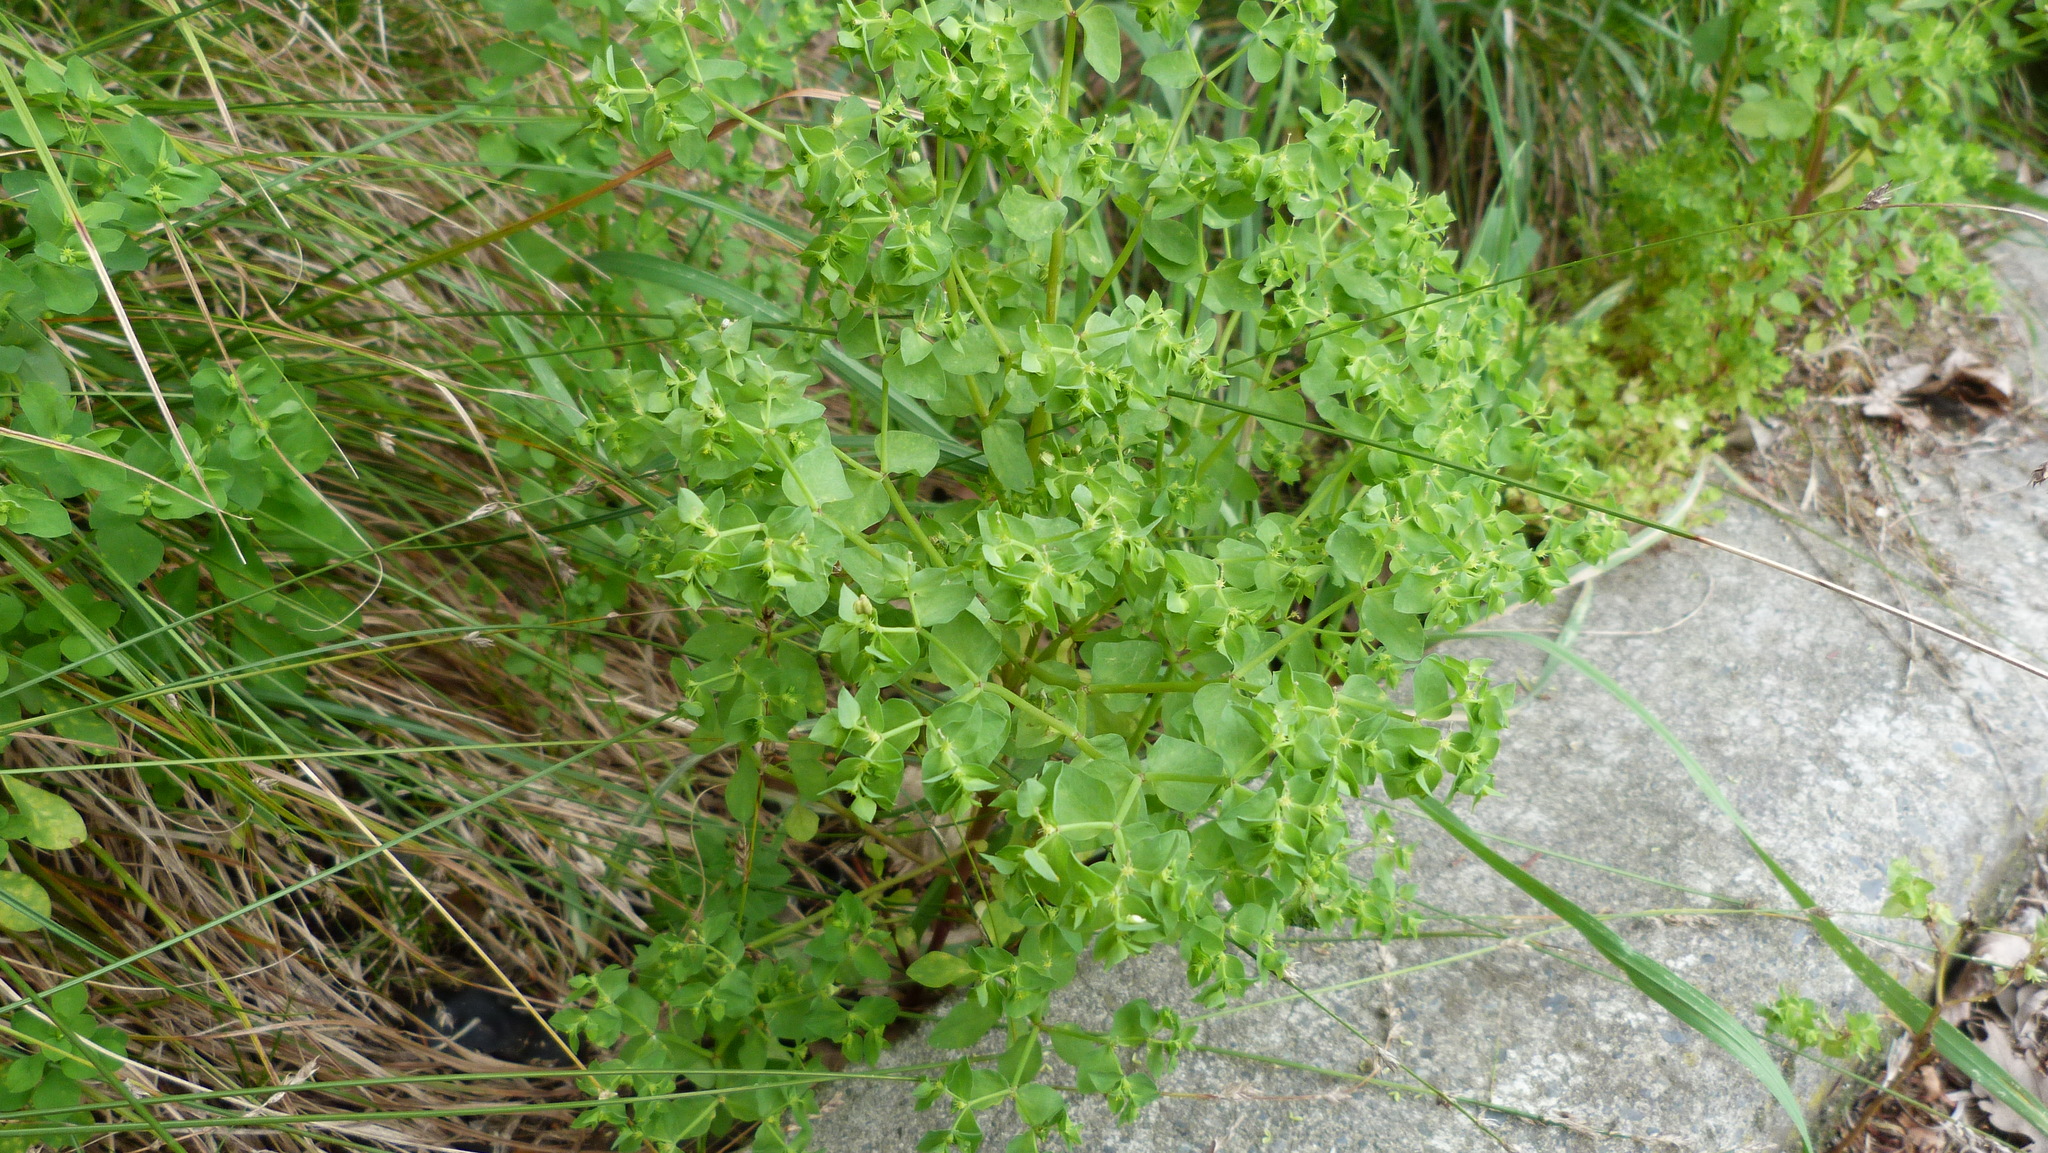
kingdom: Plantae
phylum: Tracheophyta
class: Magnoliopsida
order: Malpighiales
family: Euphorbiaceae
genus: Euphorbia
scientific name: Euphorbia peplus
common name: Petty spurge
